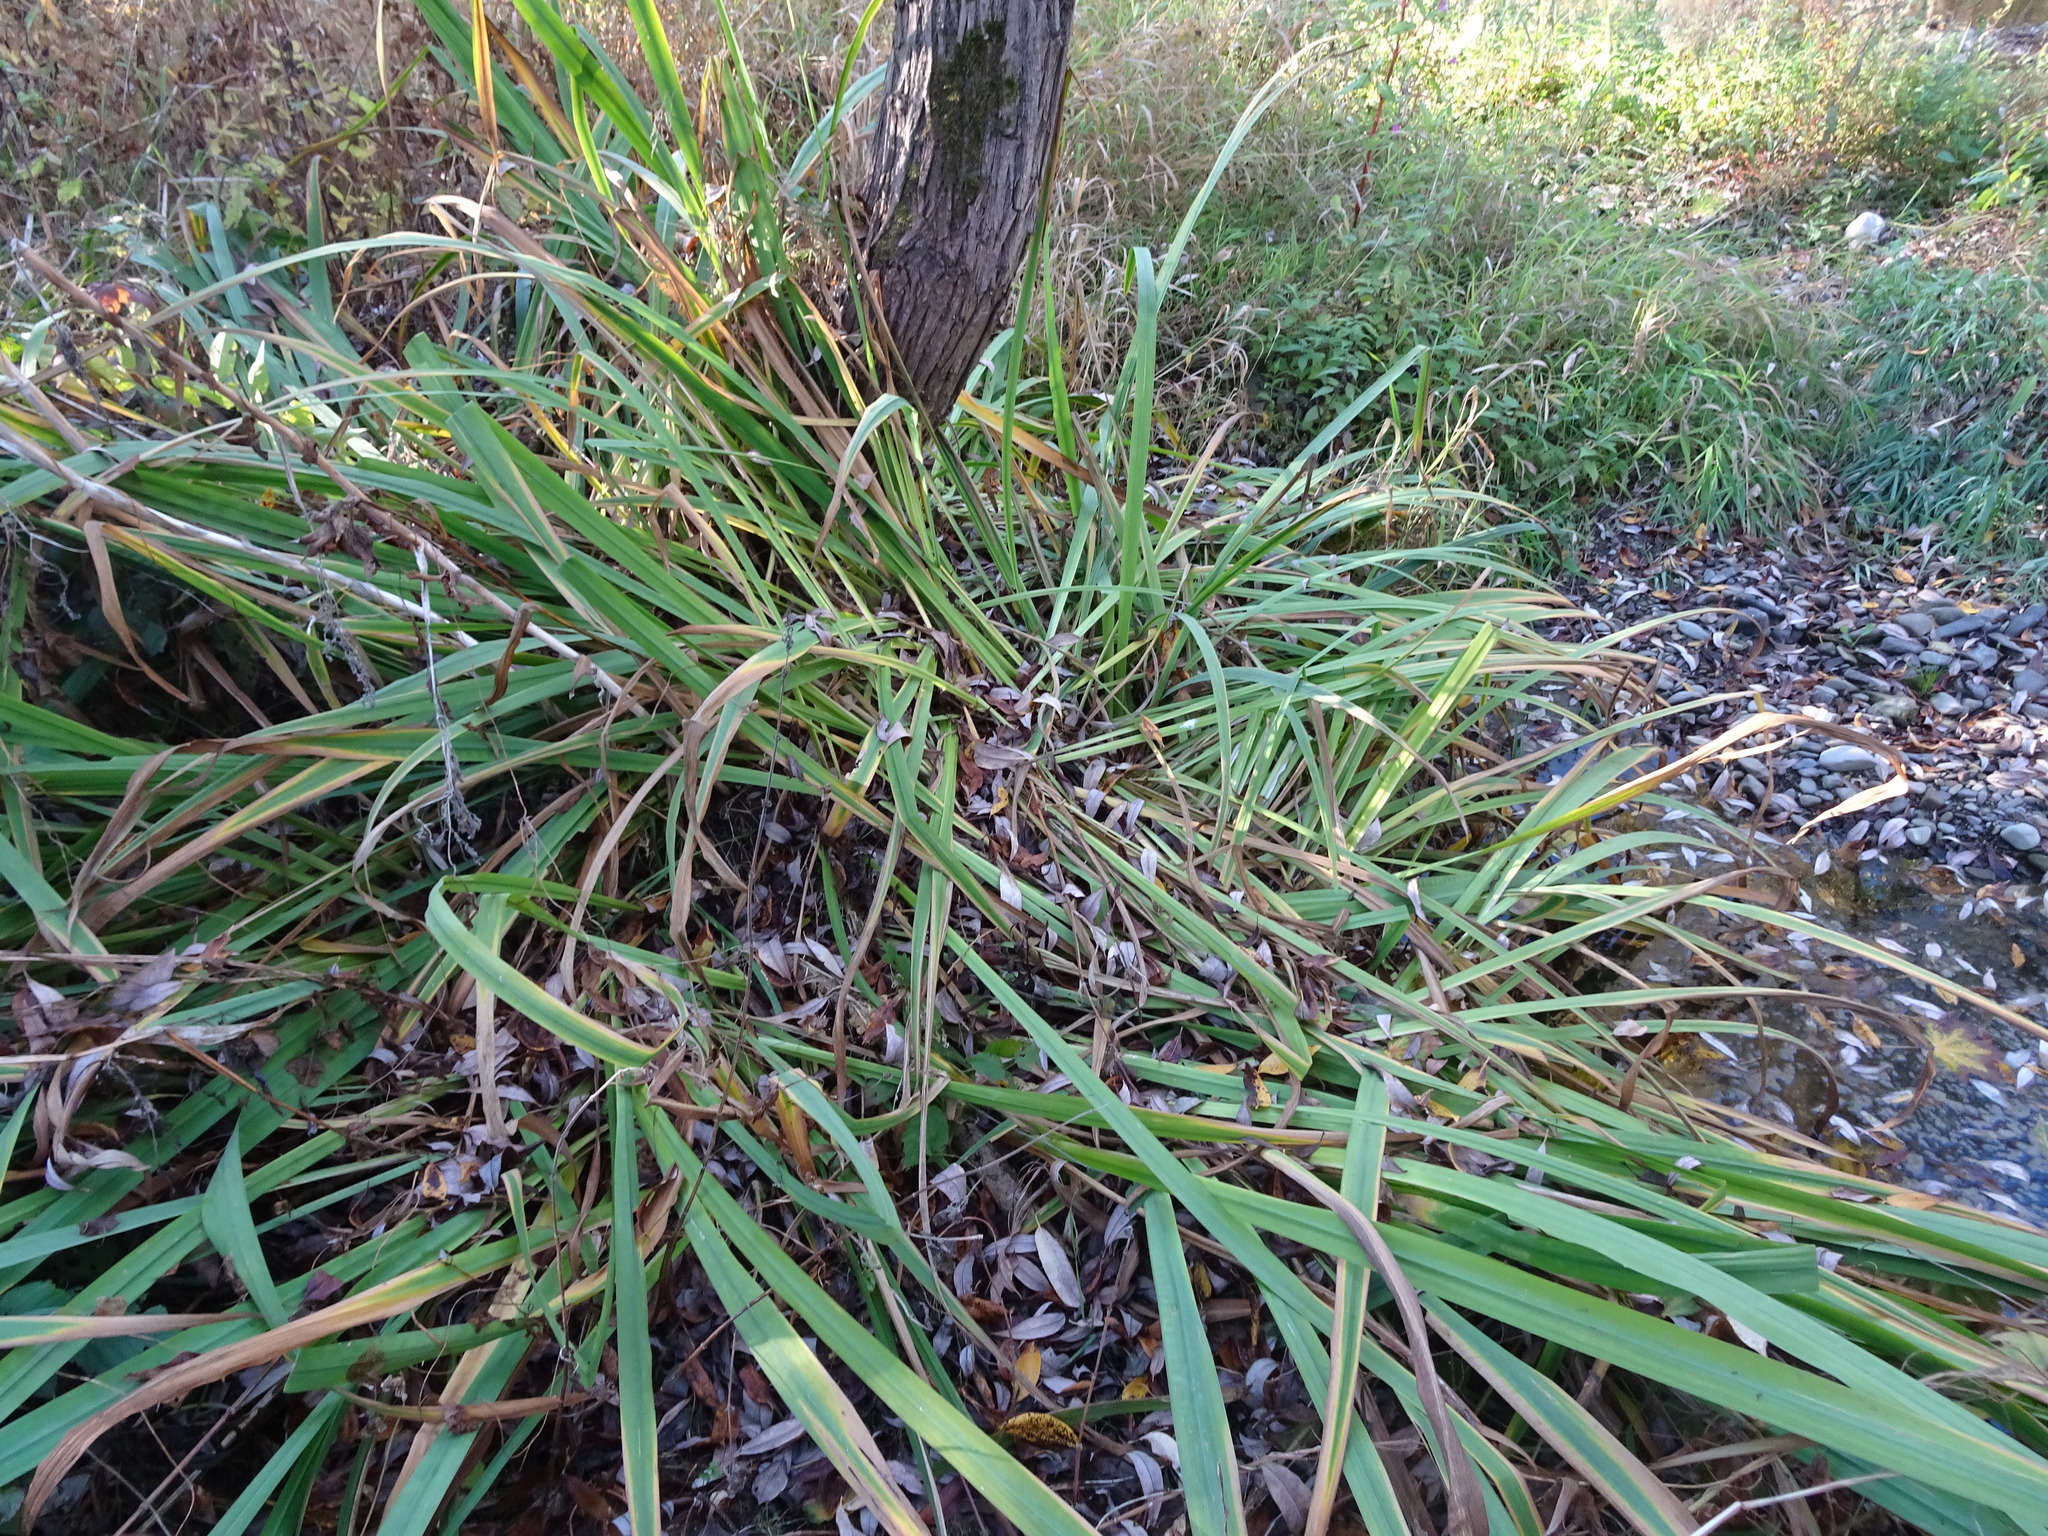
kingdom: Plantae
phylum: Tracheophyta
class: Liliopsida
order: Asparagales
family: Iridaceae
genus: Iris
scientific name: Iris pseudacorus
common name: Yellow flag
